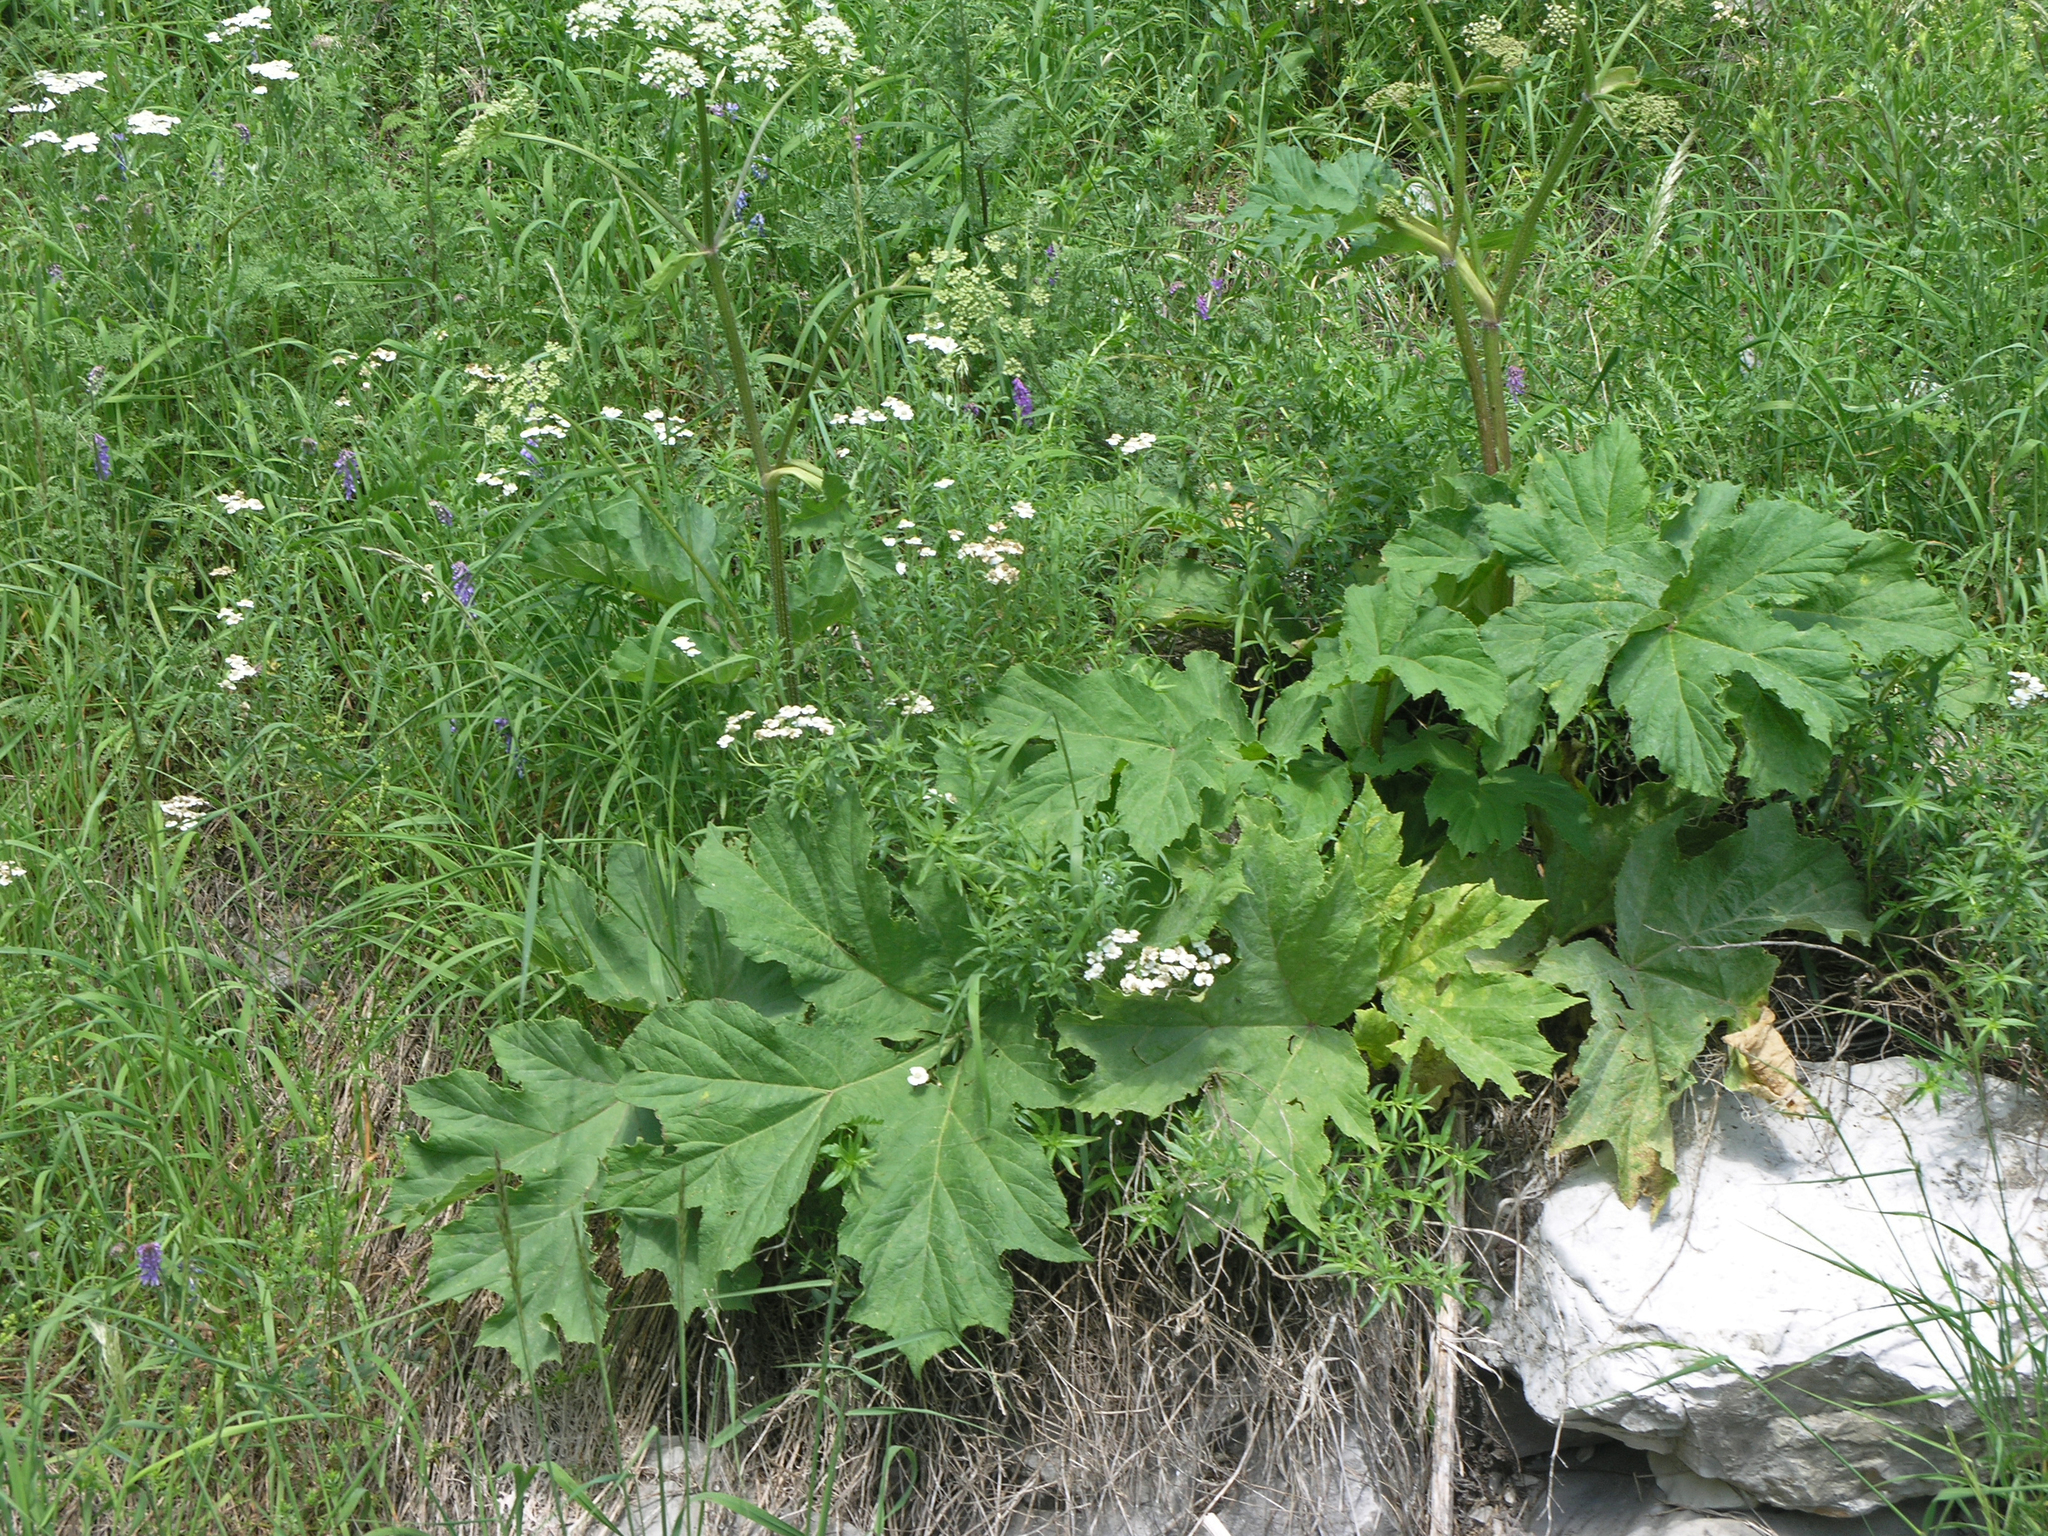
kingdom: Plantae
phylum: Tracheophyta
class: Magnoliopsida
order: Apiales
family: Apiaceae
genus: Heracleum
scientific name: Heracleum sosnowskyi
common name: Sosnowsky's hogweed
